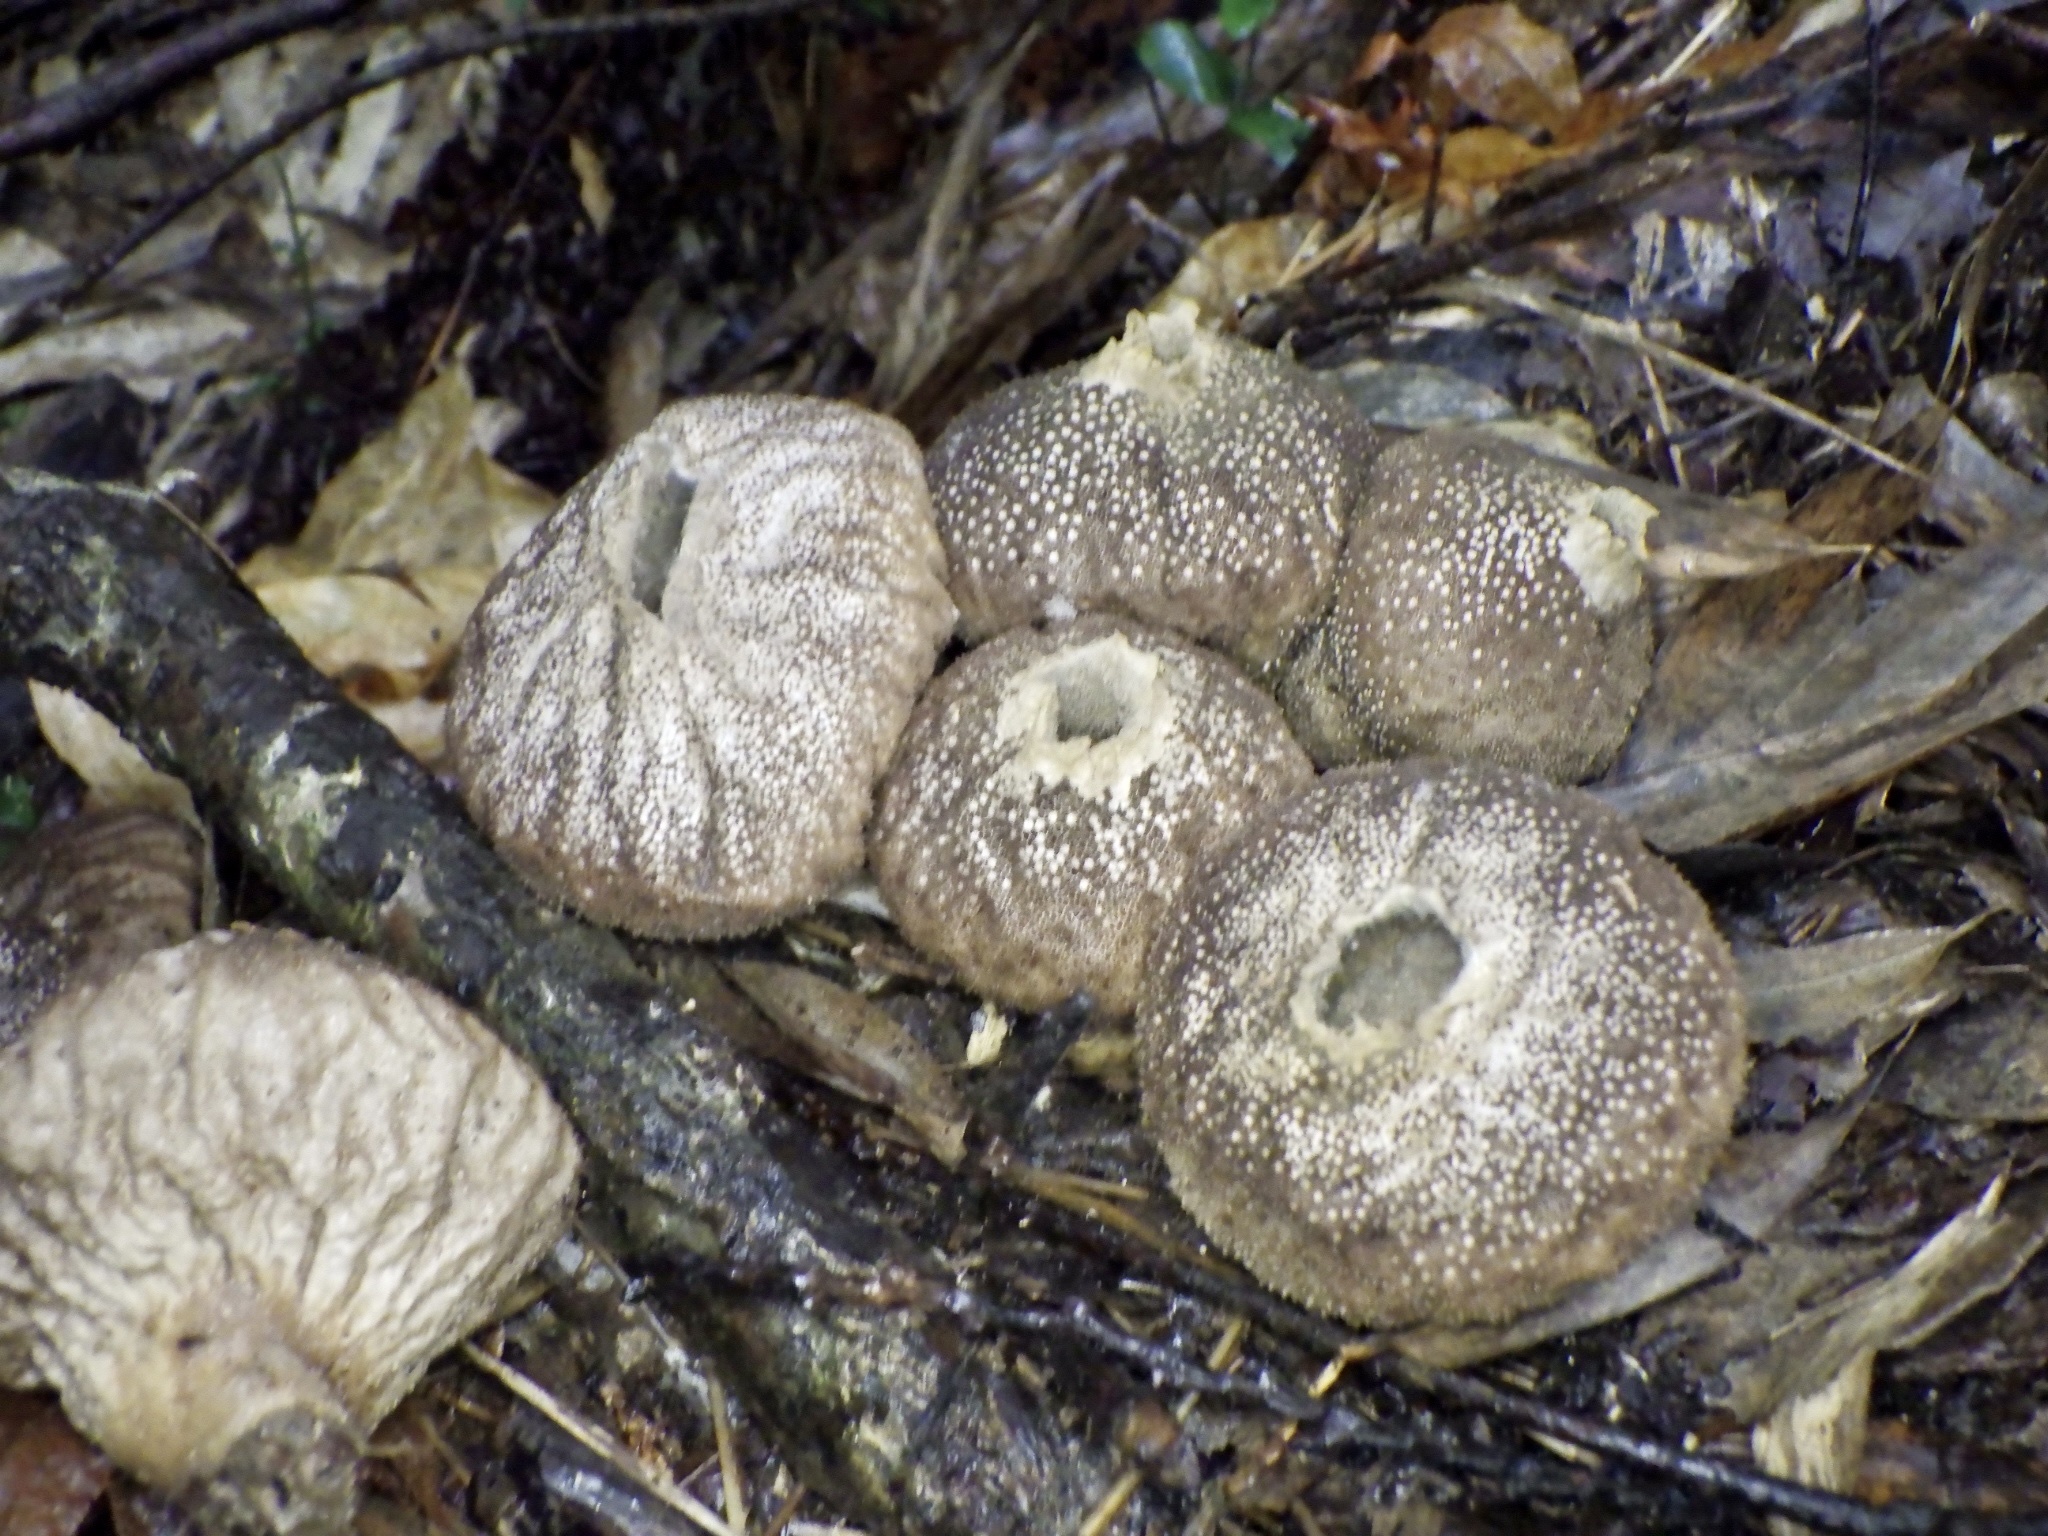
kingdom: Fungi
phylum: Basidiomycota
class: Agaricomycetes
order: Agaricales
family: Lycoperdaceae
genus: Lycoperdon
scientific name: Lycoperdon perlatum
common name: Common puffball
